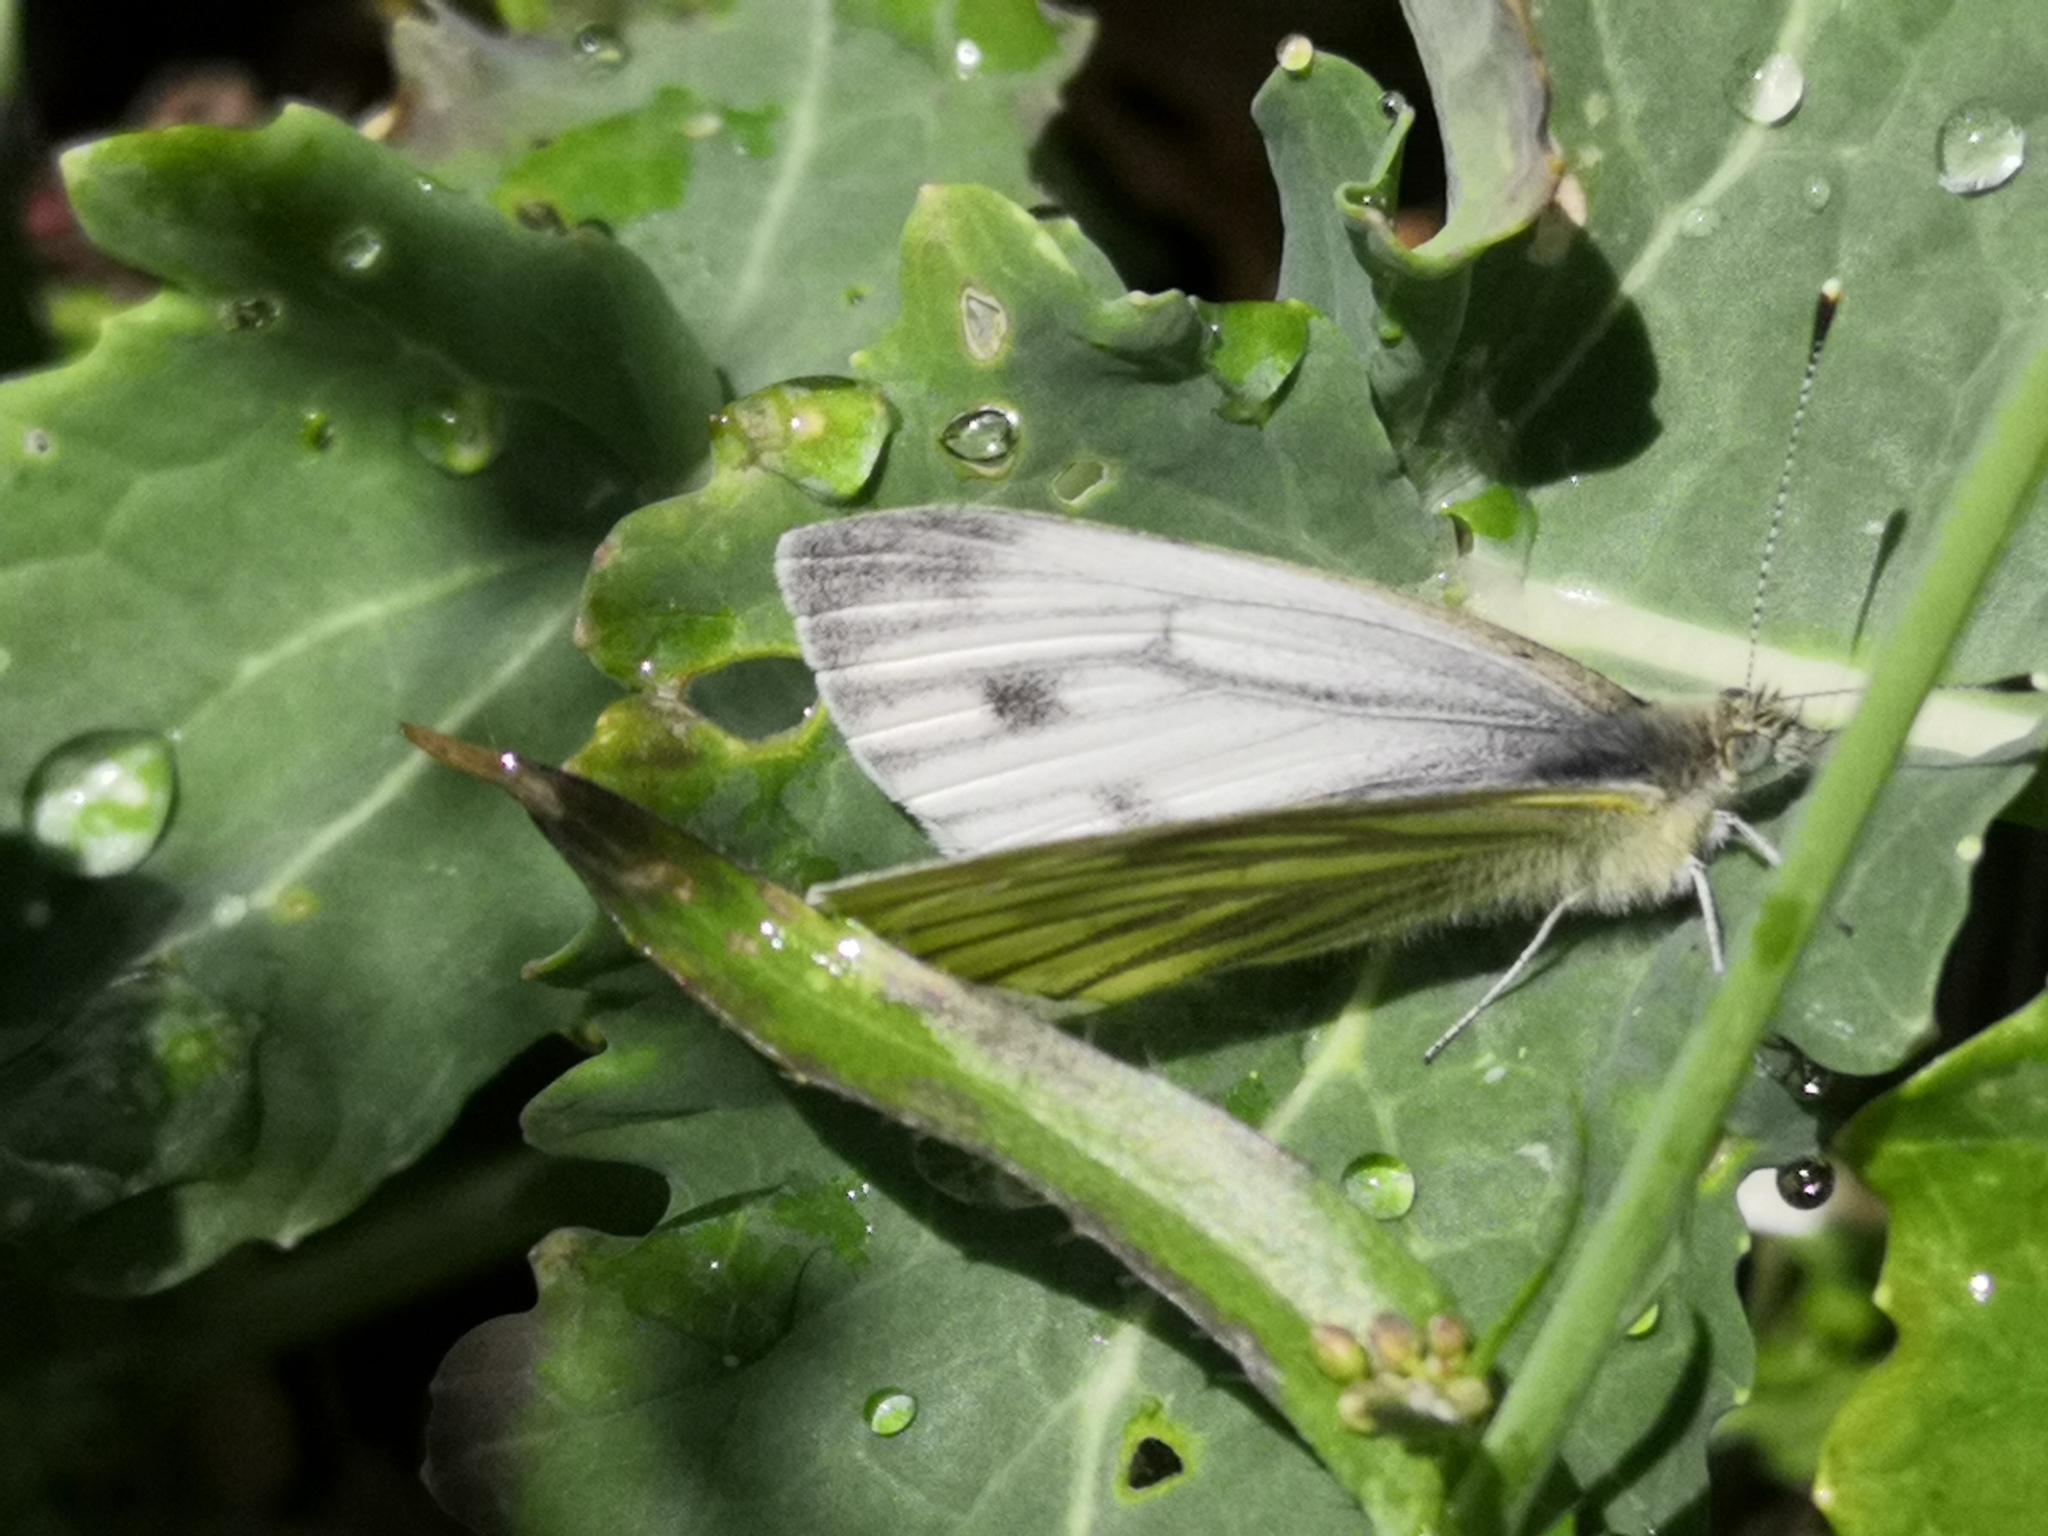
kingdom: Animalia
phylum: Arthropoda
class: Insecta
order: Lepidoptera
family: Pieridae
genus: Pieris
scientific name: Pieris napi
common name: Green-veined white
